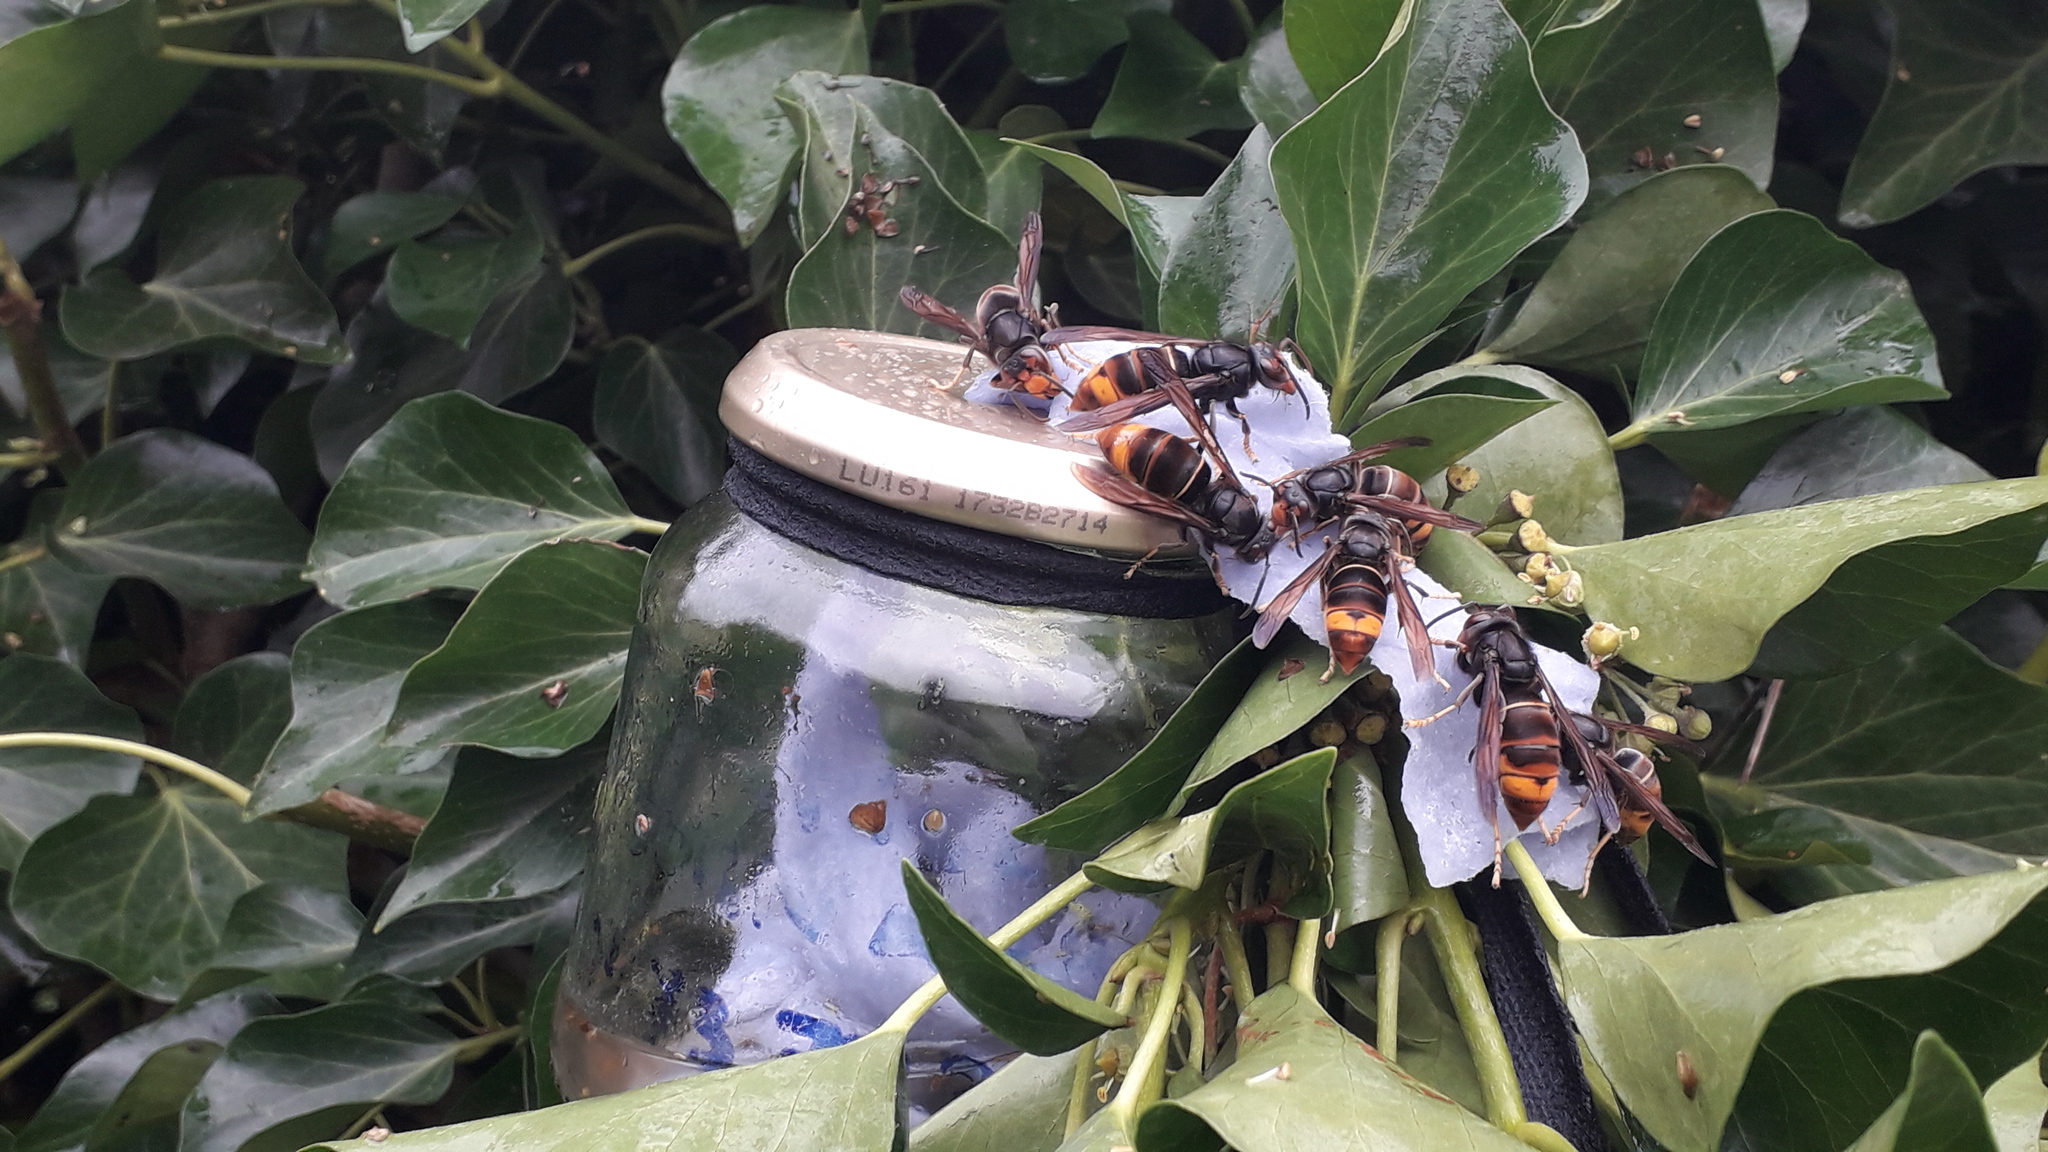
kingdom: Animalia
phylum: Arthropoda
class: Insecta
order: Hymenoptera
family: Vespidae
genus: Vespa
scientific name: Vespa velutina
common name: Asian hornet
